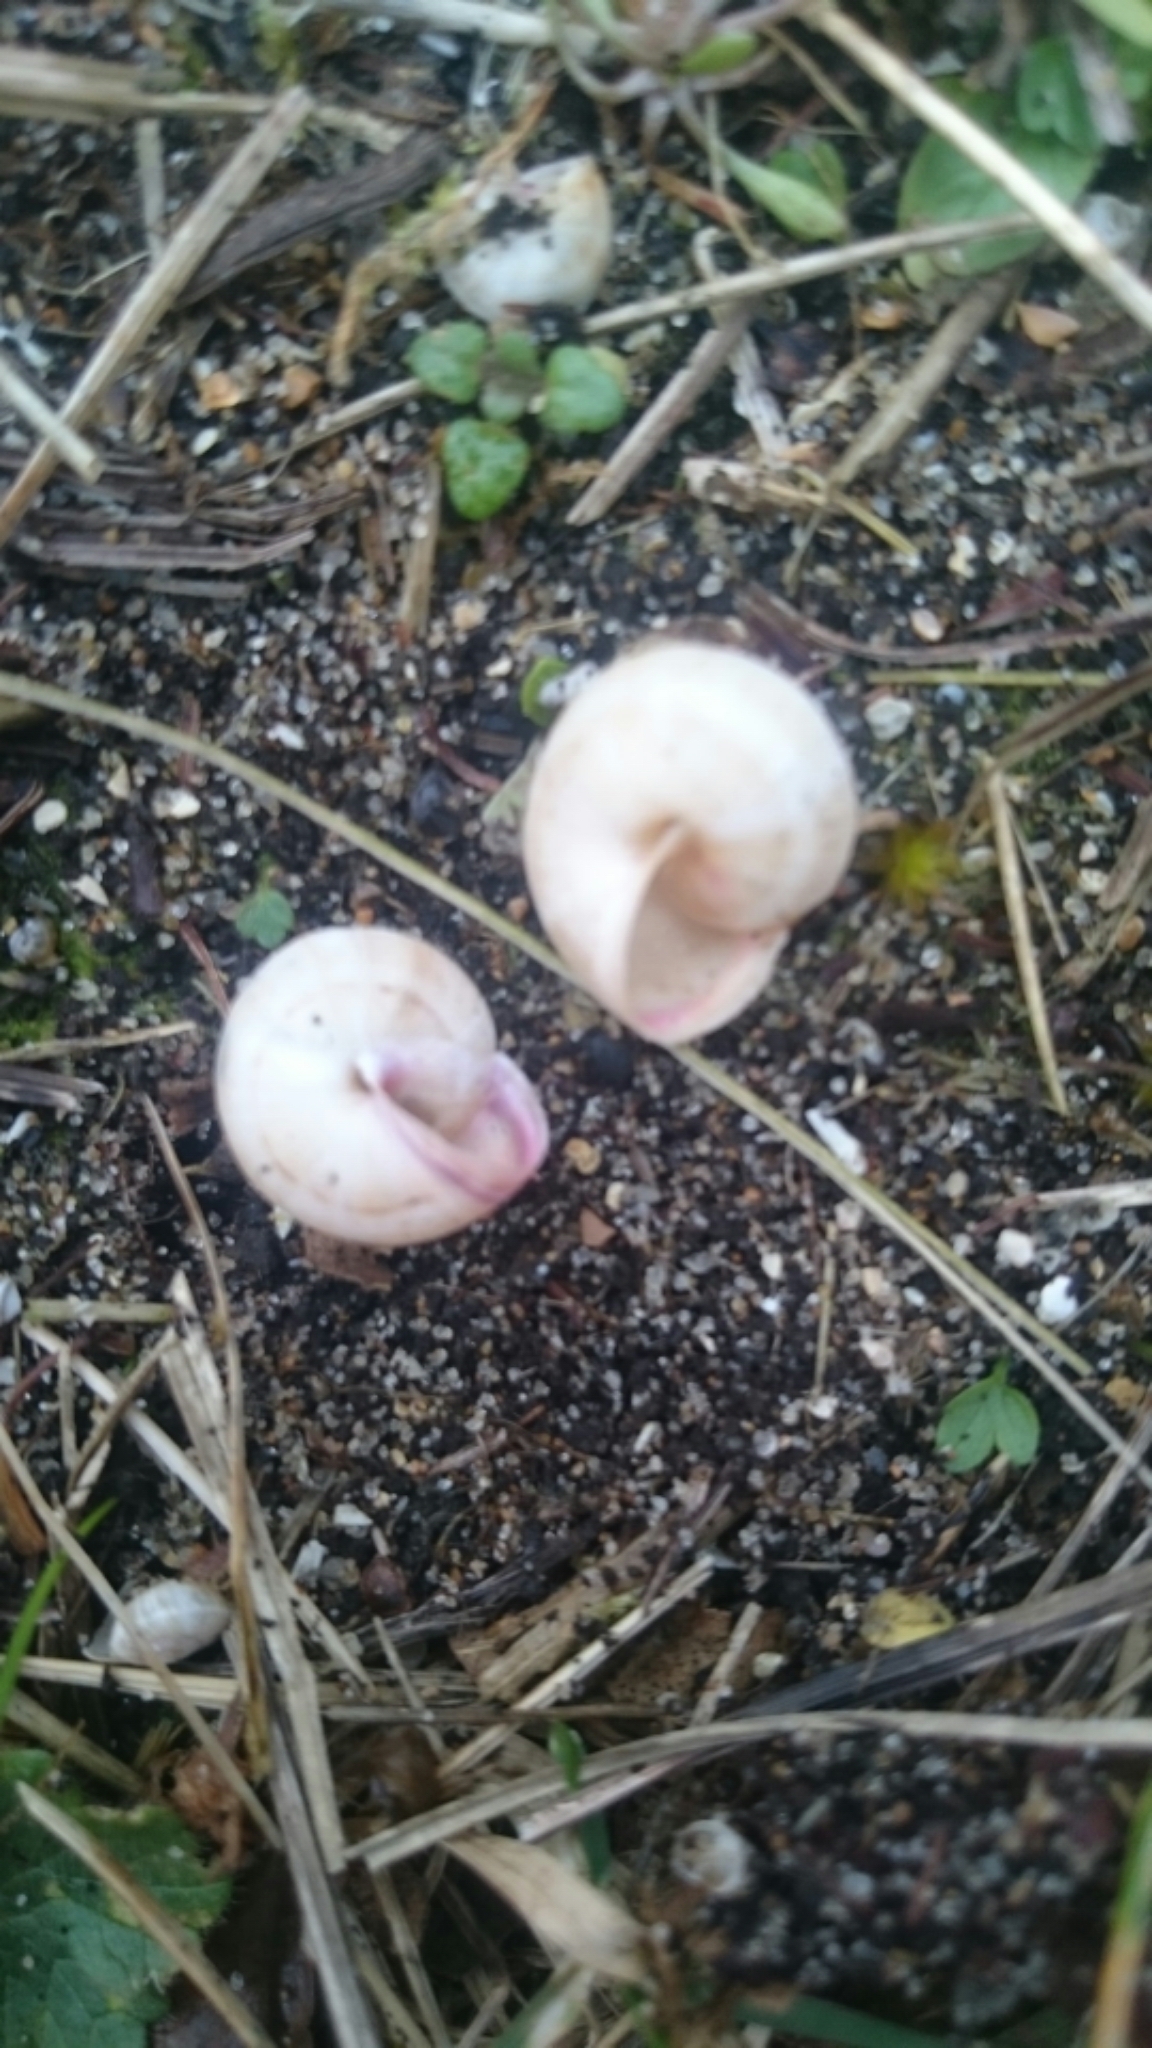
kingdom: Animalia
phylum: Mollusca
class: Gastropoda
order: Stylommatophora
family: Helicidae
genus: Theba
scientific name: Theba pisana
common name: White snail
